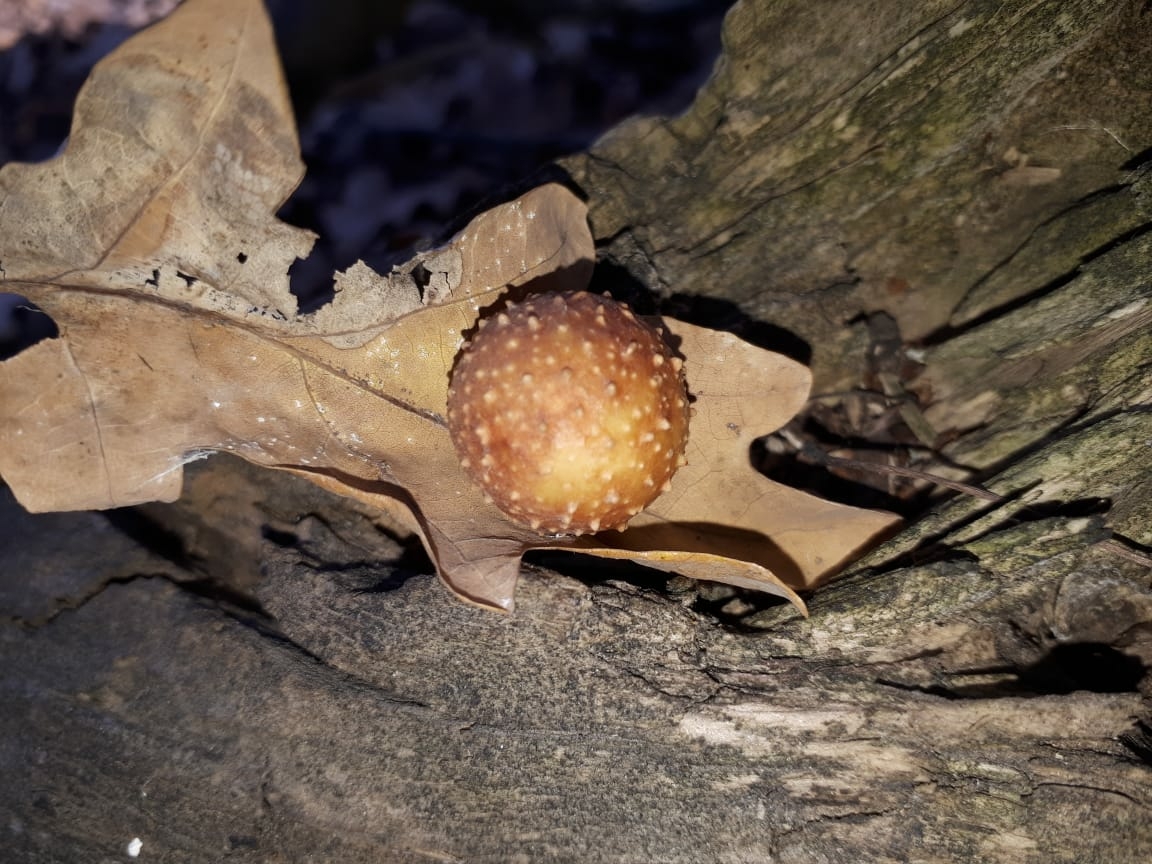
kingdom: Animalia
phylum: Arthropoda
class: Insecta
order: Hymenoptera
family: Cynipidae
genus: Cynips
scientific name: Cynips quercusfolii
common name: Cherry gall
